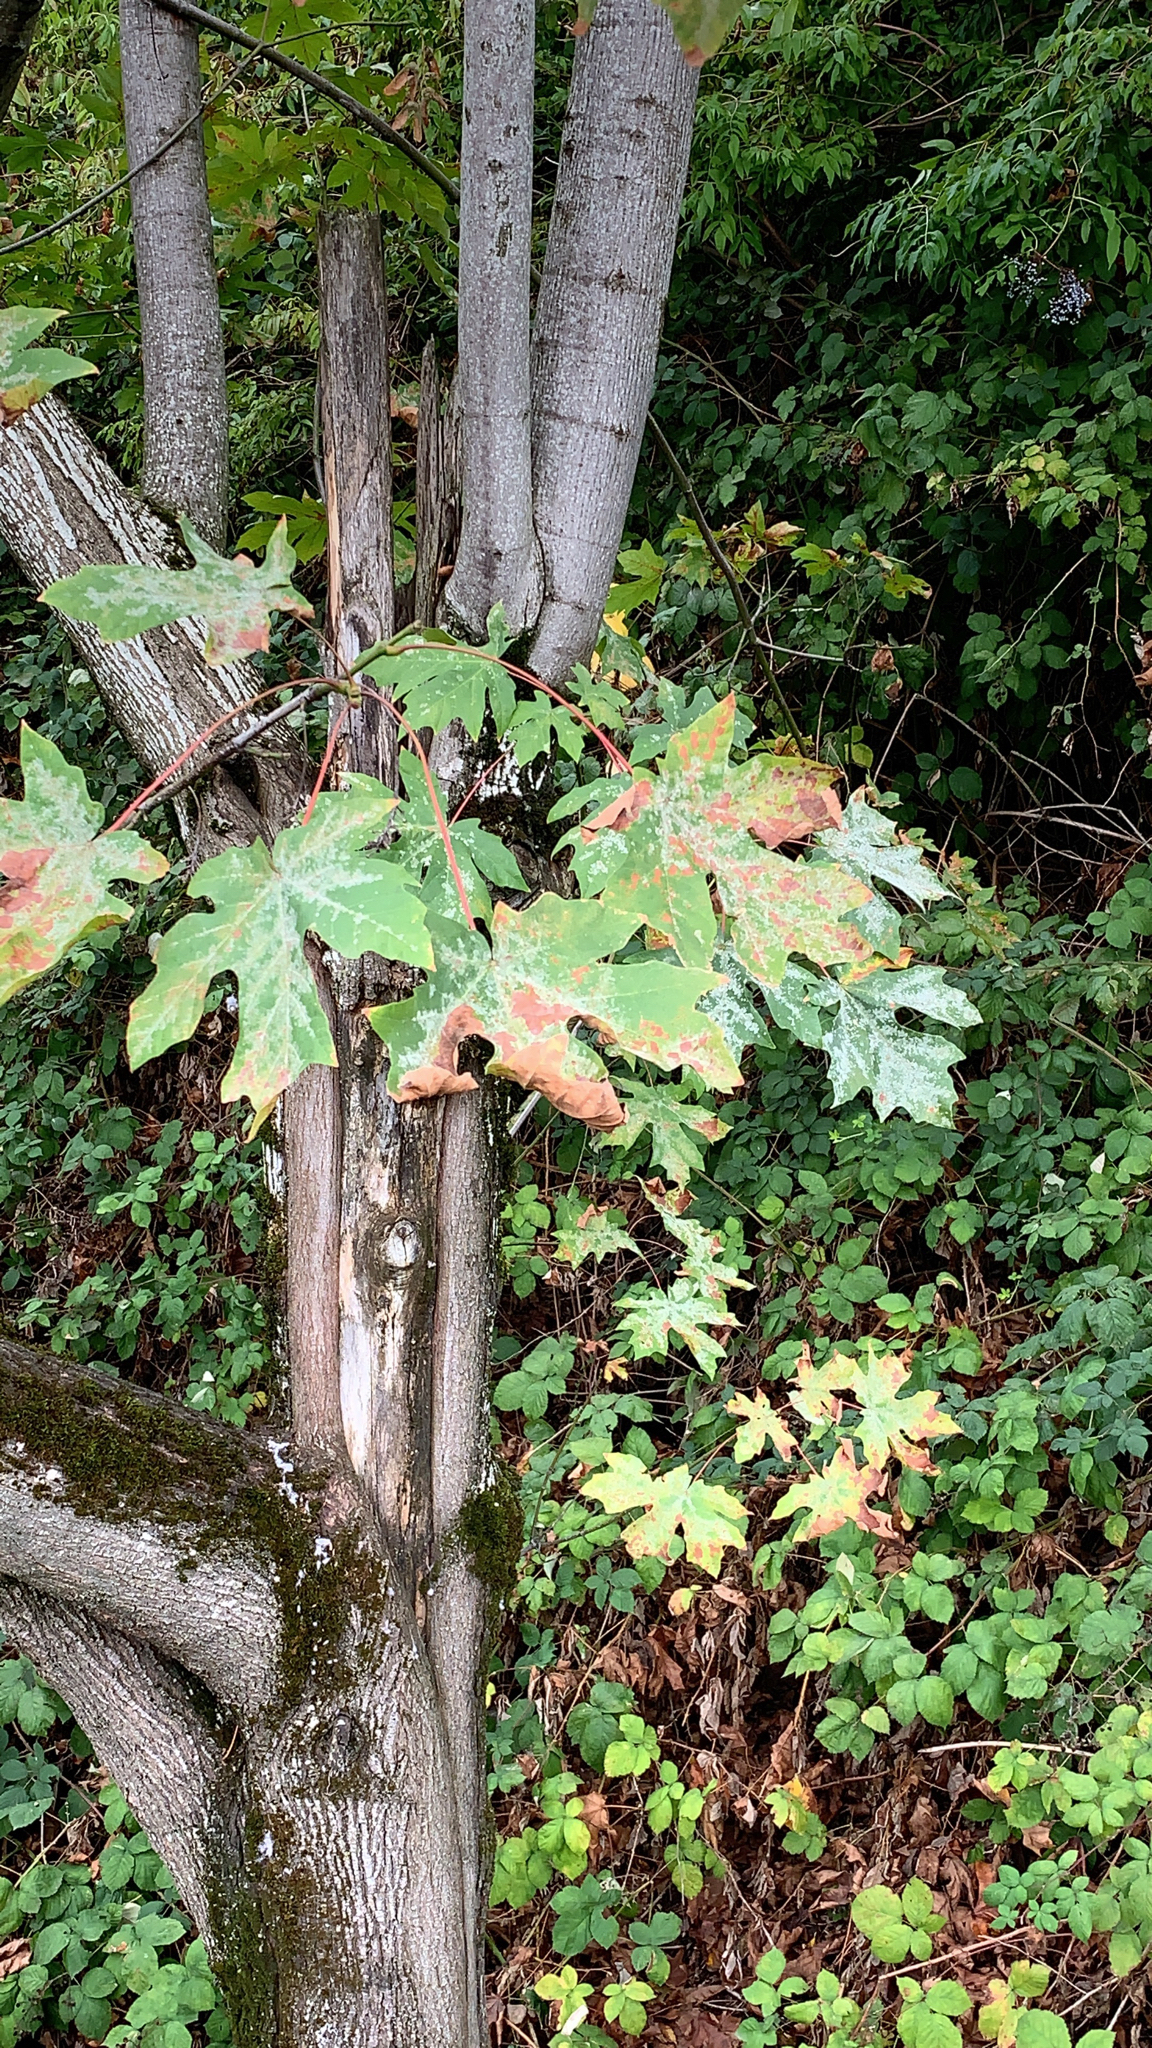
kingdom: Plantae
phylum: Tracheophyta
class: Magnoliopsida
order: Sapindales
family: Sapindaceae
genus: Acer
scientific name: Acer macrophyllum
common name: Oregon maple
